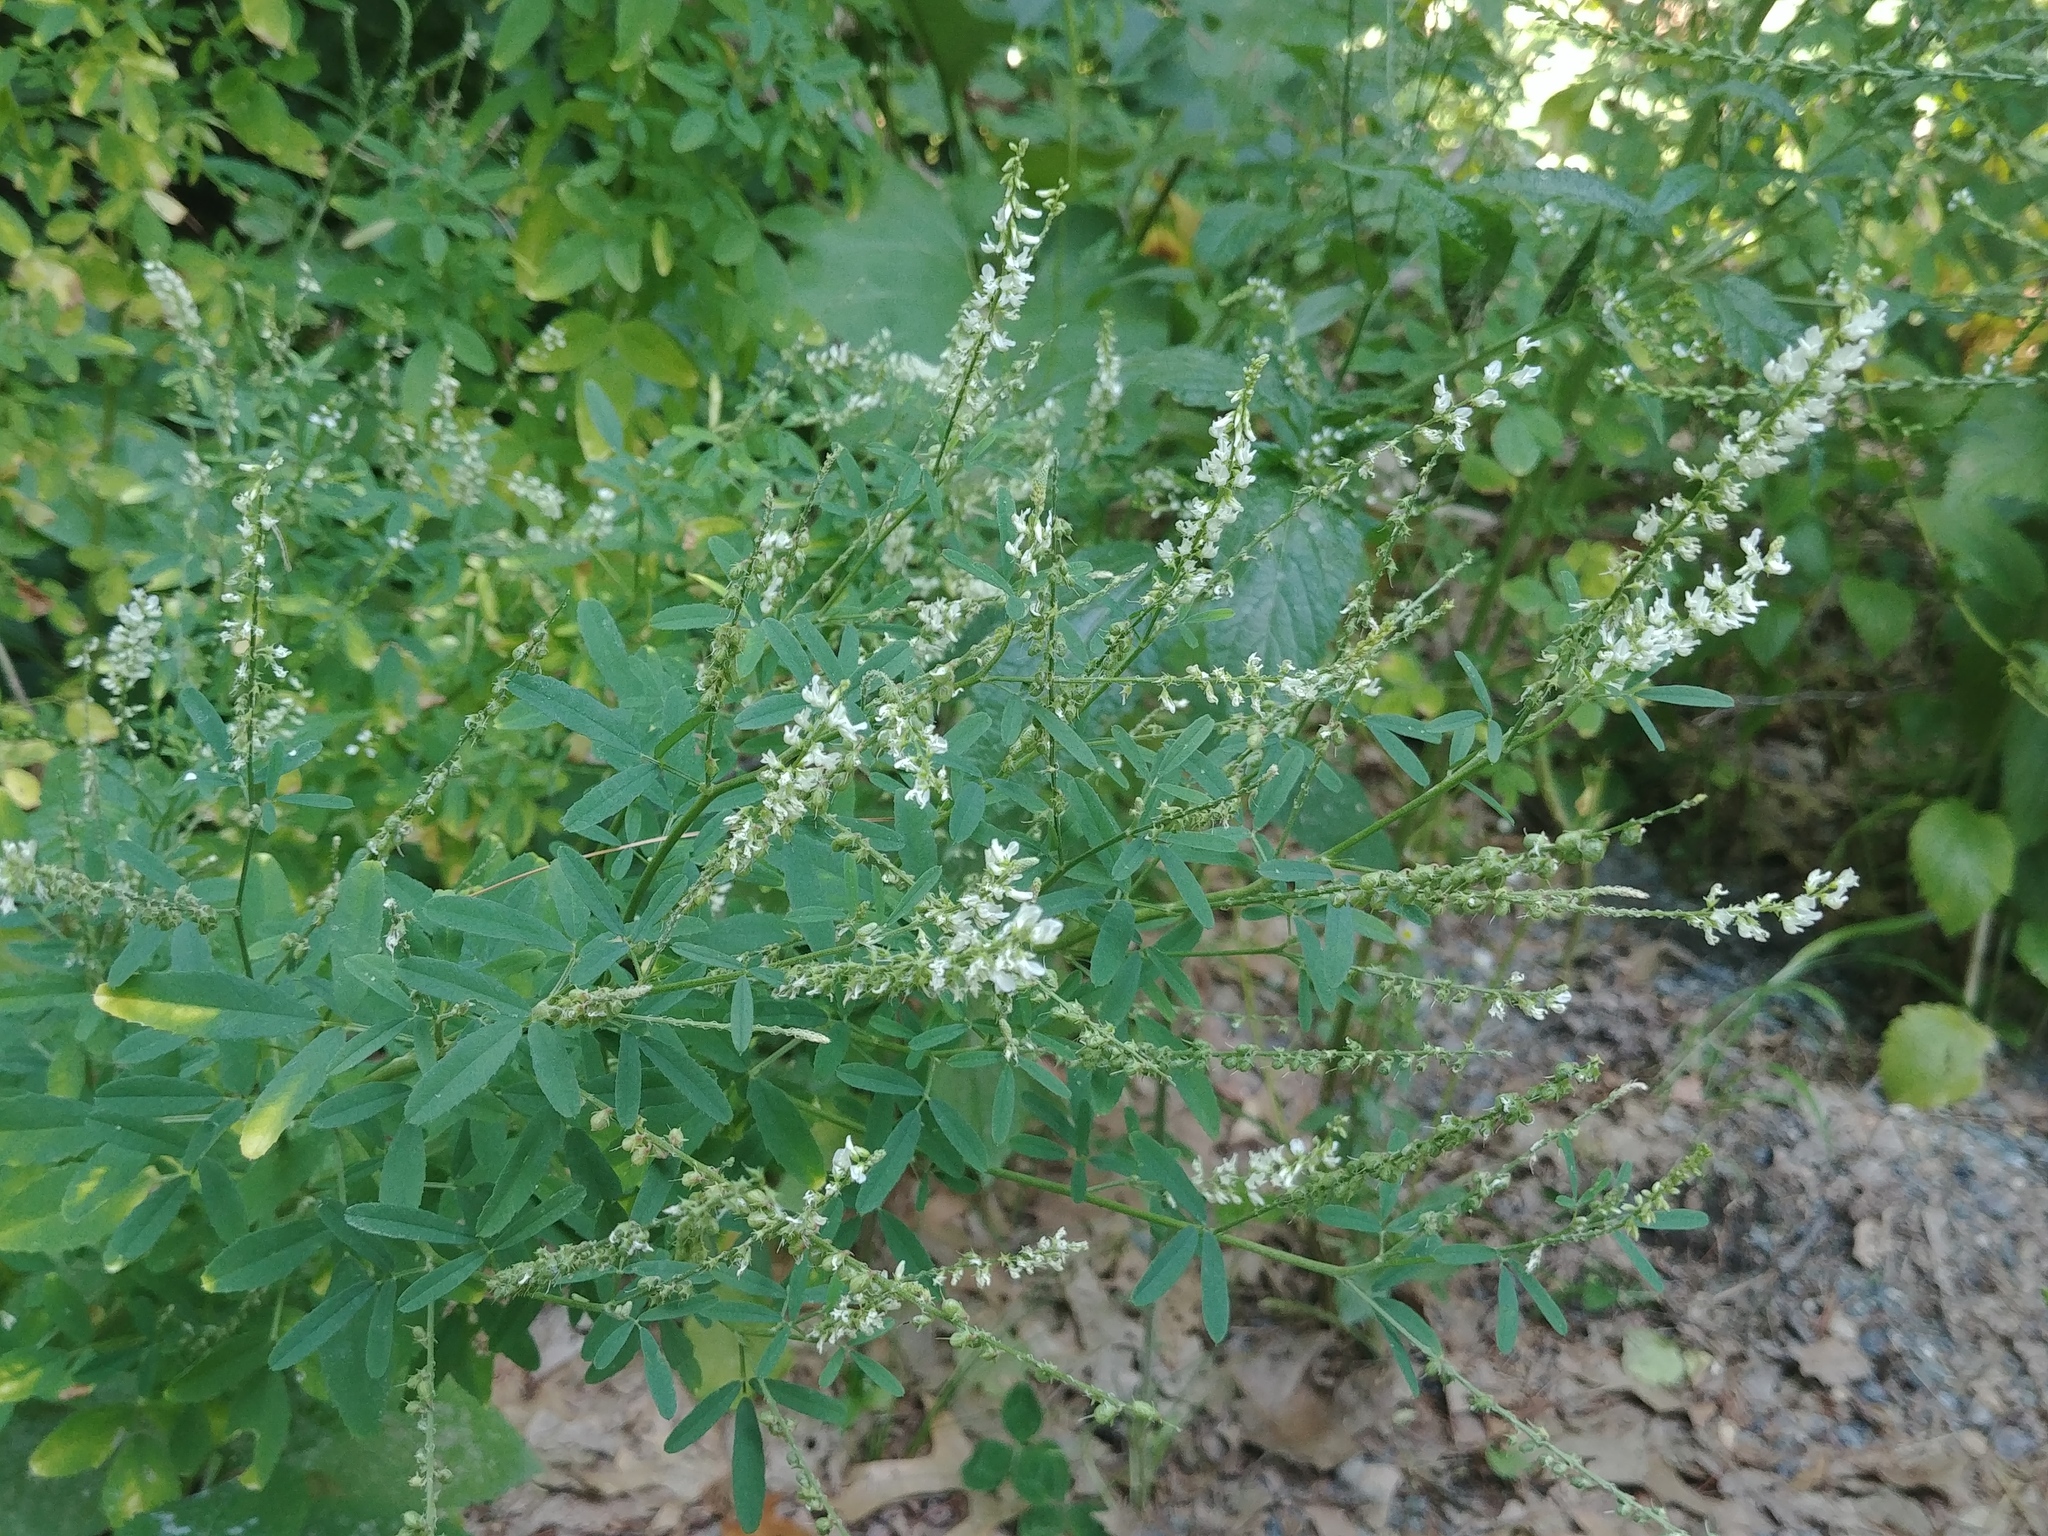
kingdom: Plantae
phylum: Tracheophyta
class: Magnoliopsida
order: Fabales
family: Fabaceae
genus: Melilotus
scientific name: Melilotus albus
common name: White melilot
